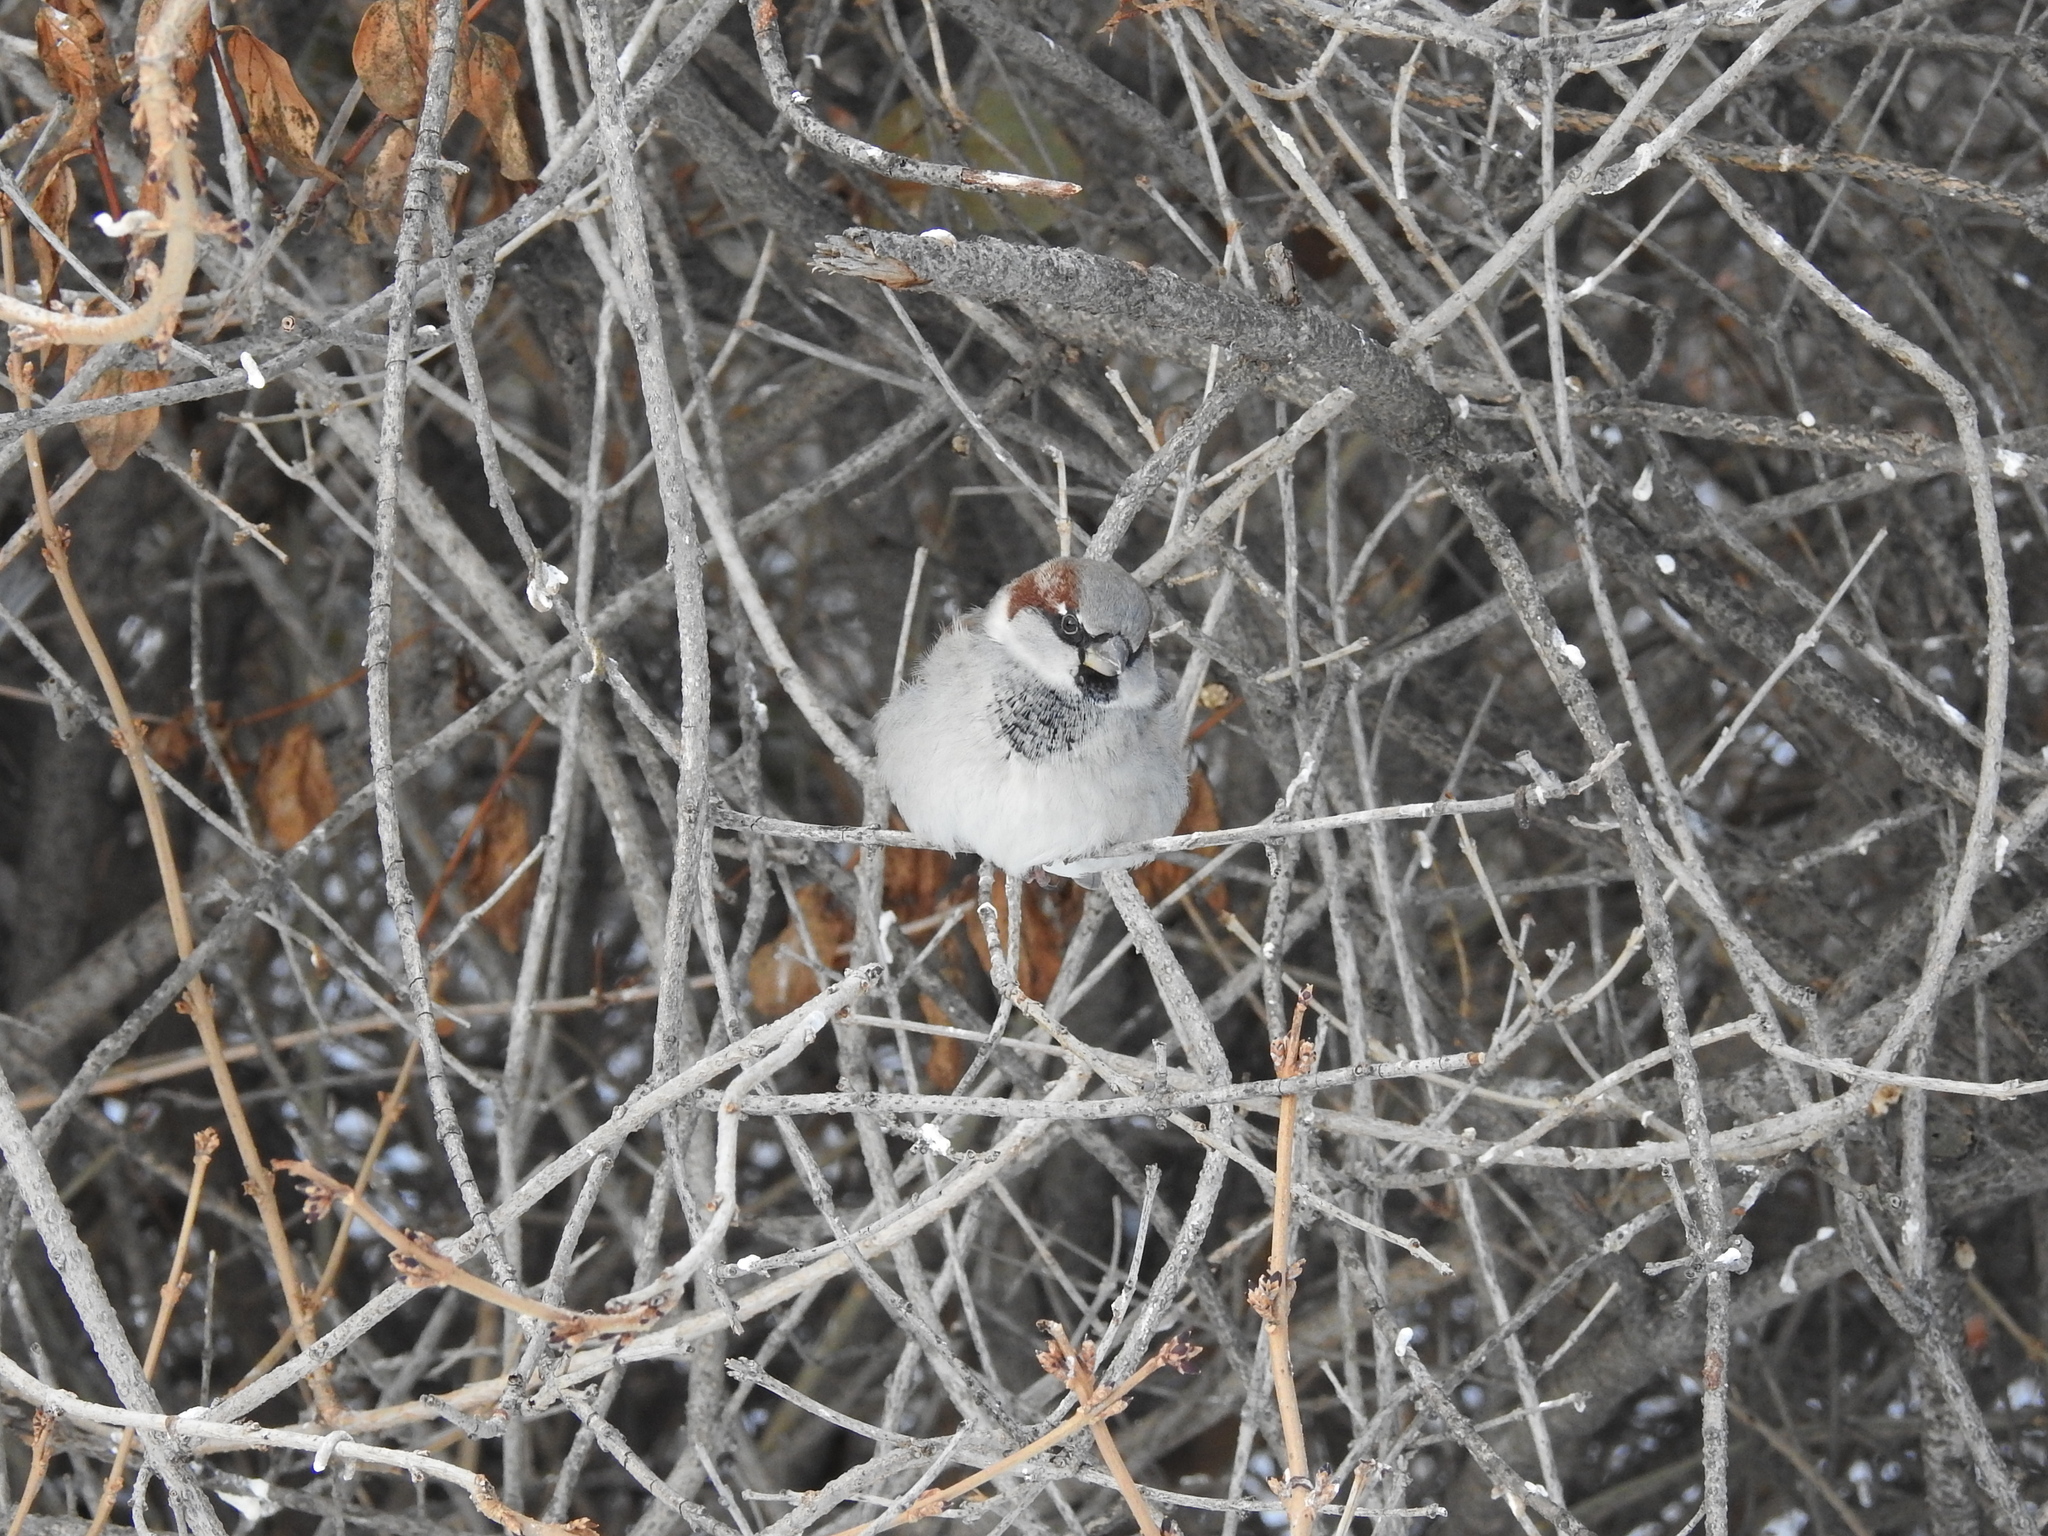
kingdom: Animalia
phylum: Chordata
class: Aves
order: Passeriformes
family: Passeridae
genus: Passer
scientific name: Passer domesticus
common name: House sparrow
